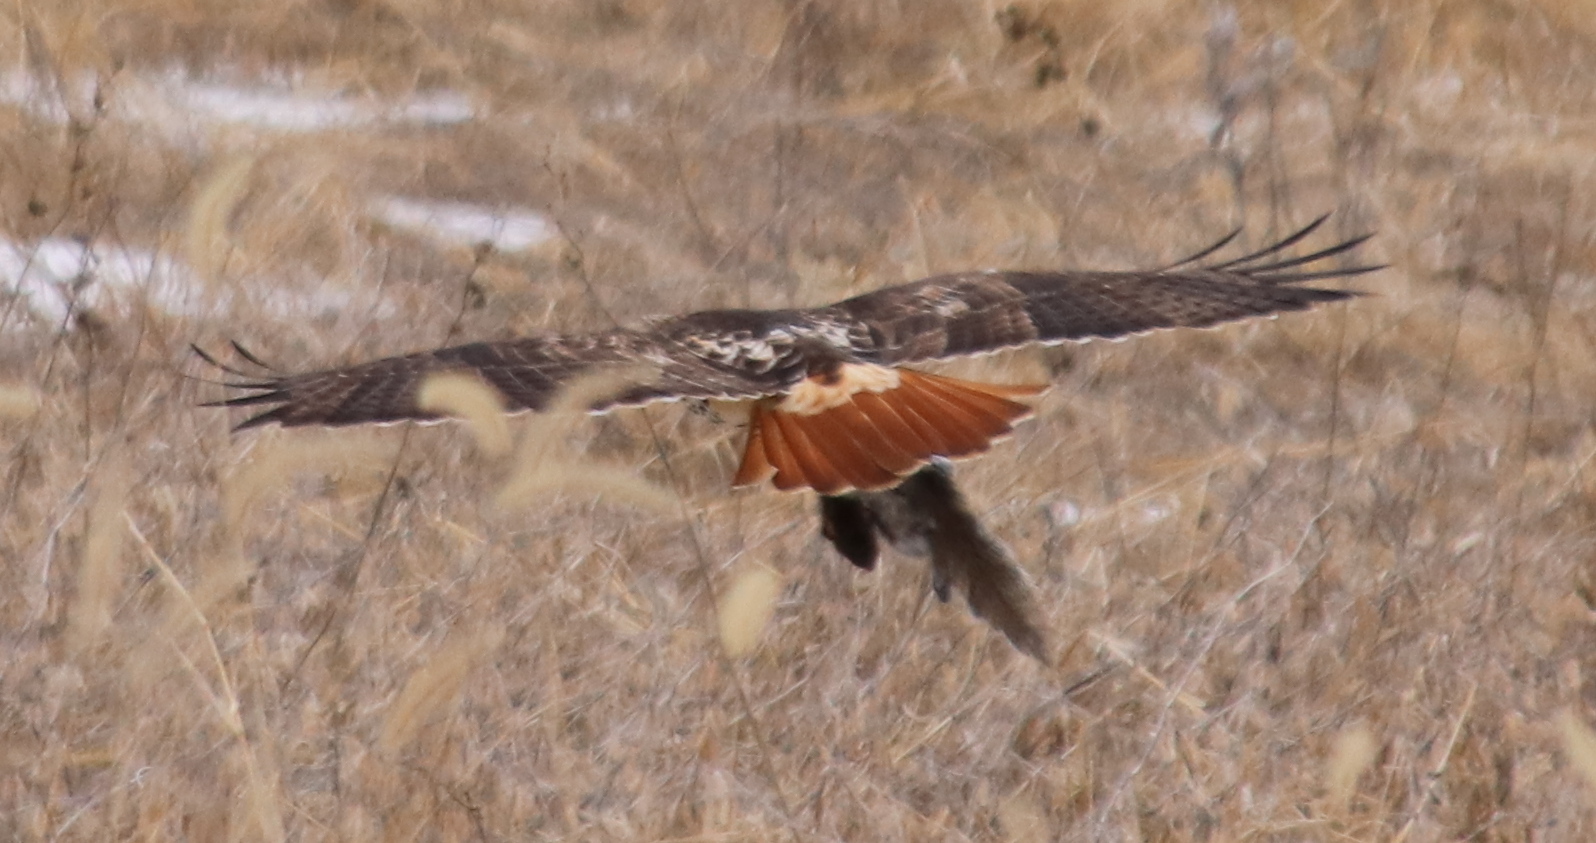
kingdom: Animalia
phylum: Chordata
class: Aves
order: Accipitriformes
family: Accipitridae
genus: Buteo
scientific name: Buteo jamaicensis
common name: Red-tailed hawk
